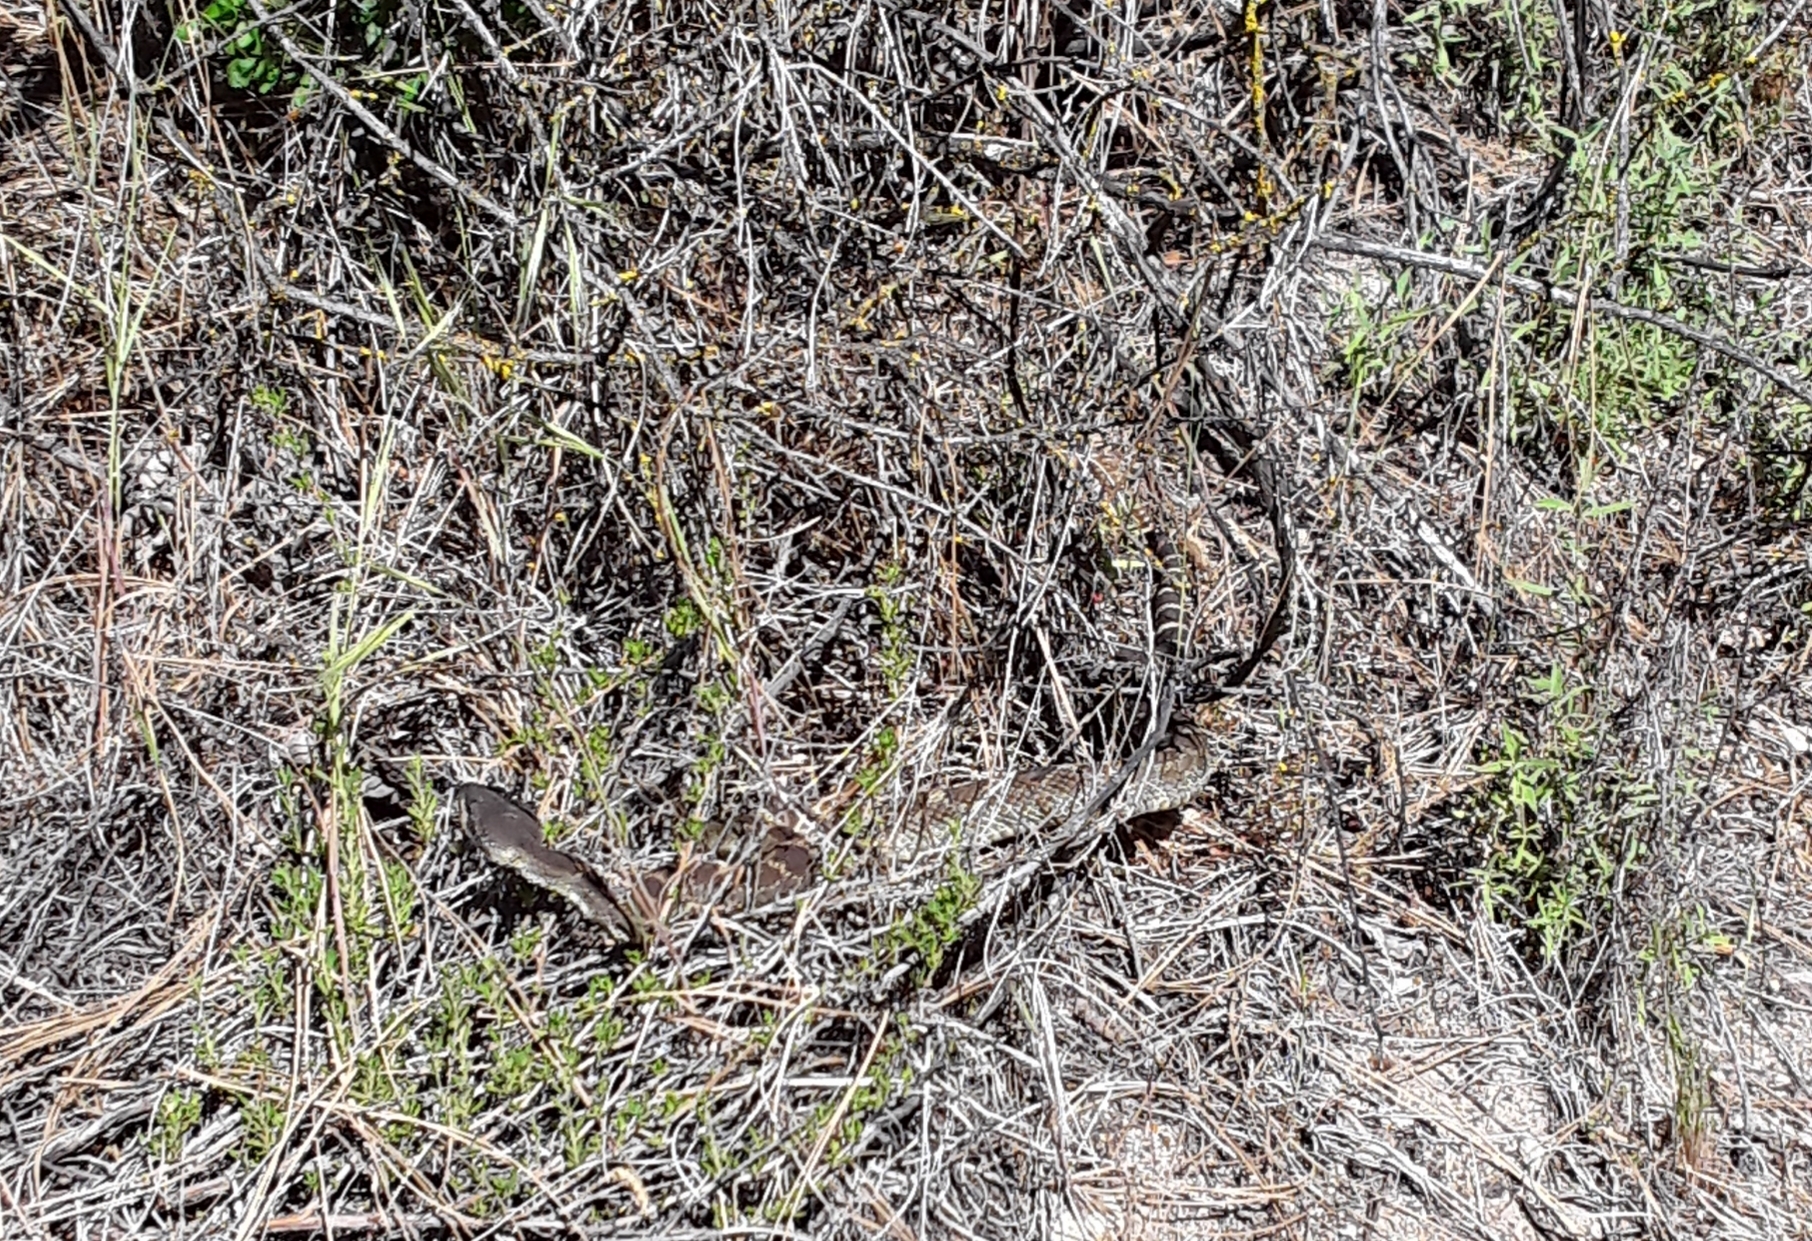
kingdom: Animalia
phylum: Chordata
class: Squamata
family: Viperidae
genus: Crotalus
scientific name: Crotalus oreganus
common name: Abyssus
